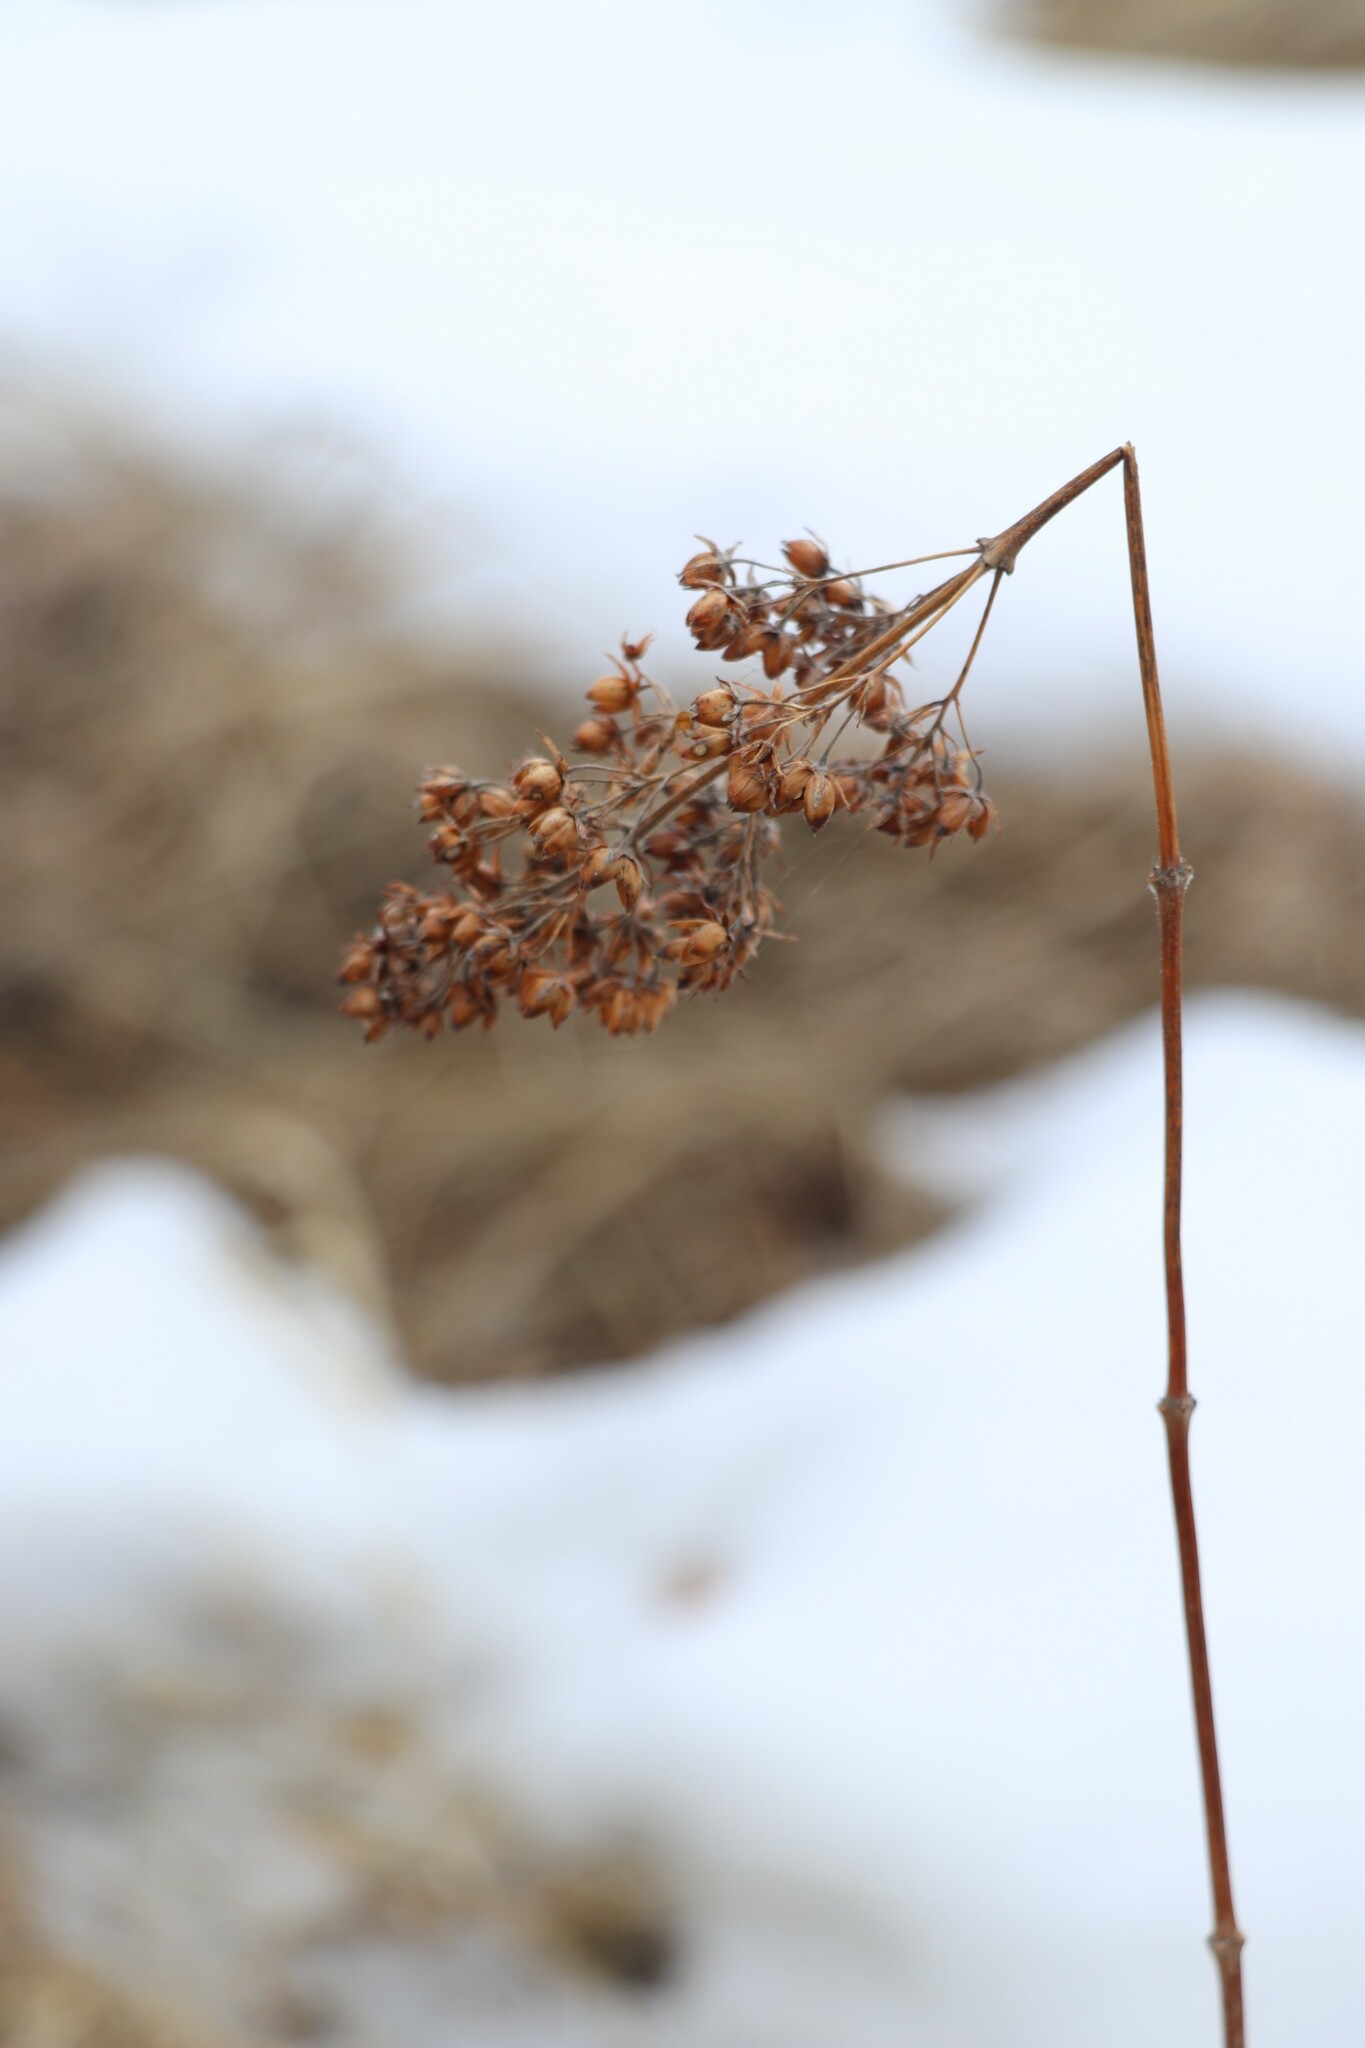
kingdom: Plantae
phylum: Tracheophyta
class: Magnoliopsida
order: Ericales
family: Primulaceae
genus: Lysimachia
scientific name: Lysimachia vulgaris
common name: Yellow loosestrife
